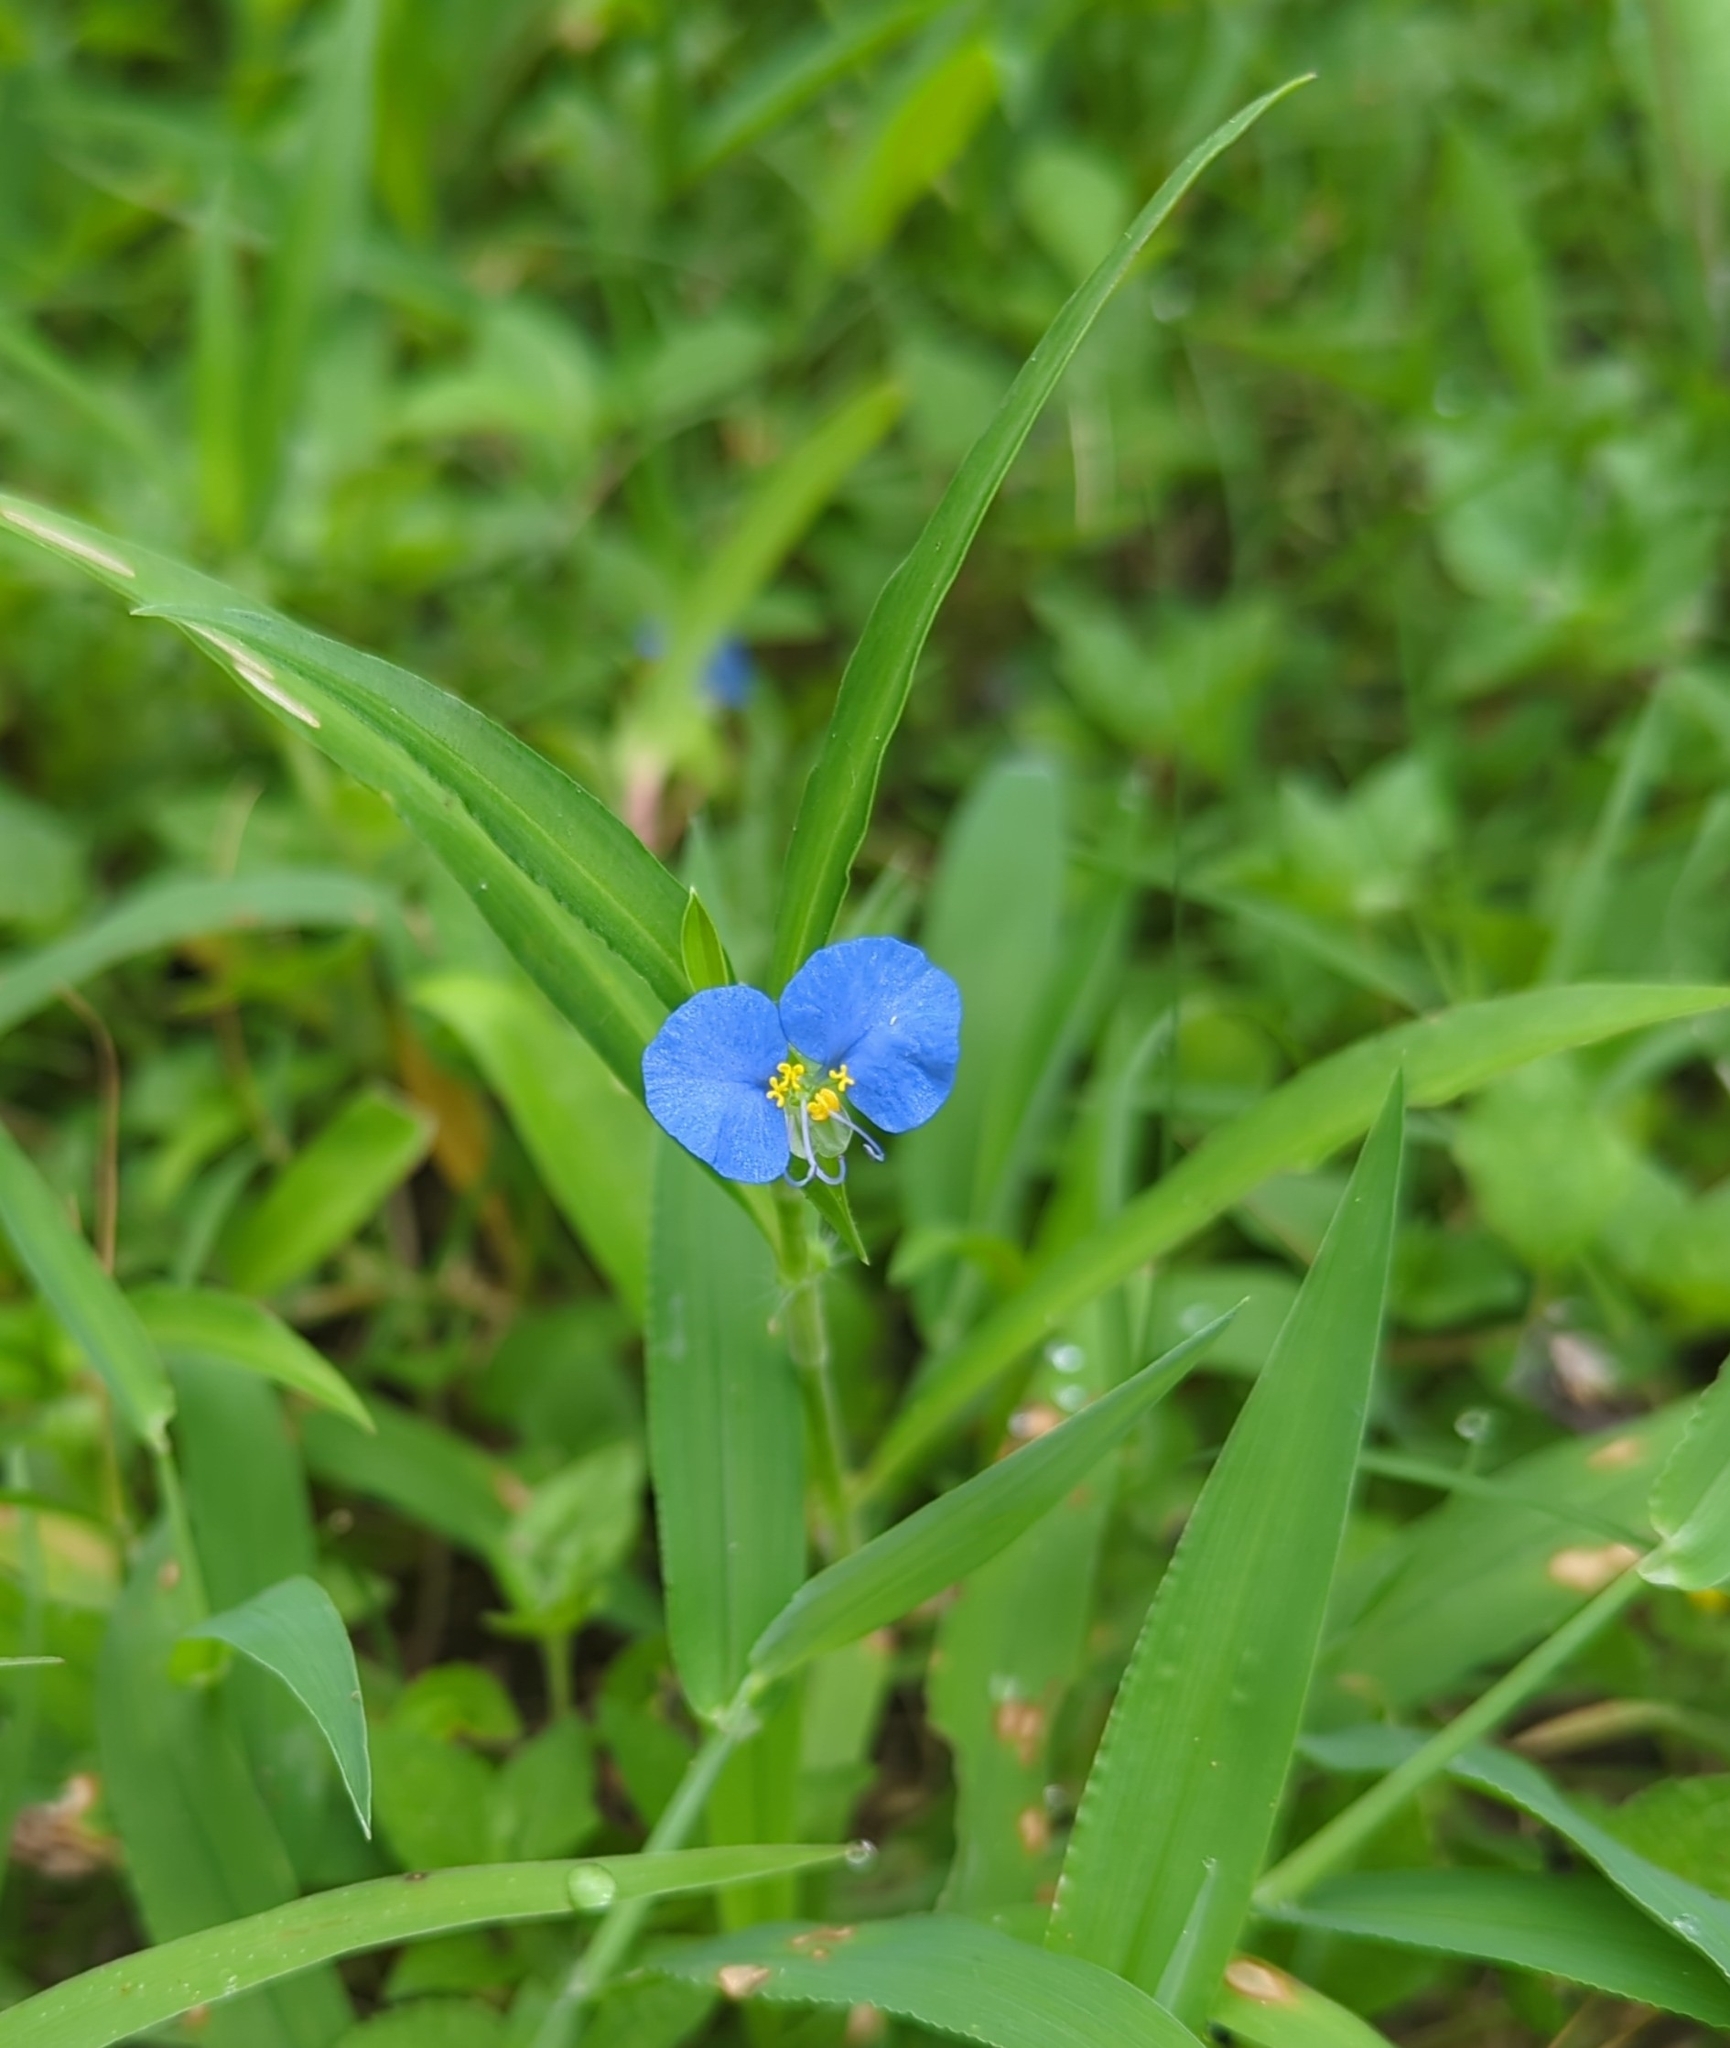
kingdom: Plantae
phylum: Tracheophyta
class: Liliopsida
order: Commelinales
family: Commelinaceae
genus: Commelina
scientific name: Commelina erecta
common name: Blousel blommetjie
